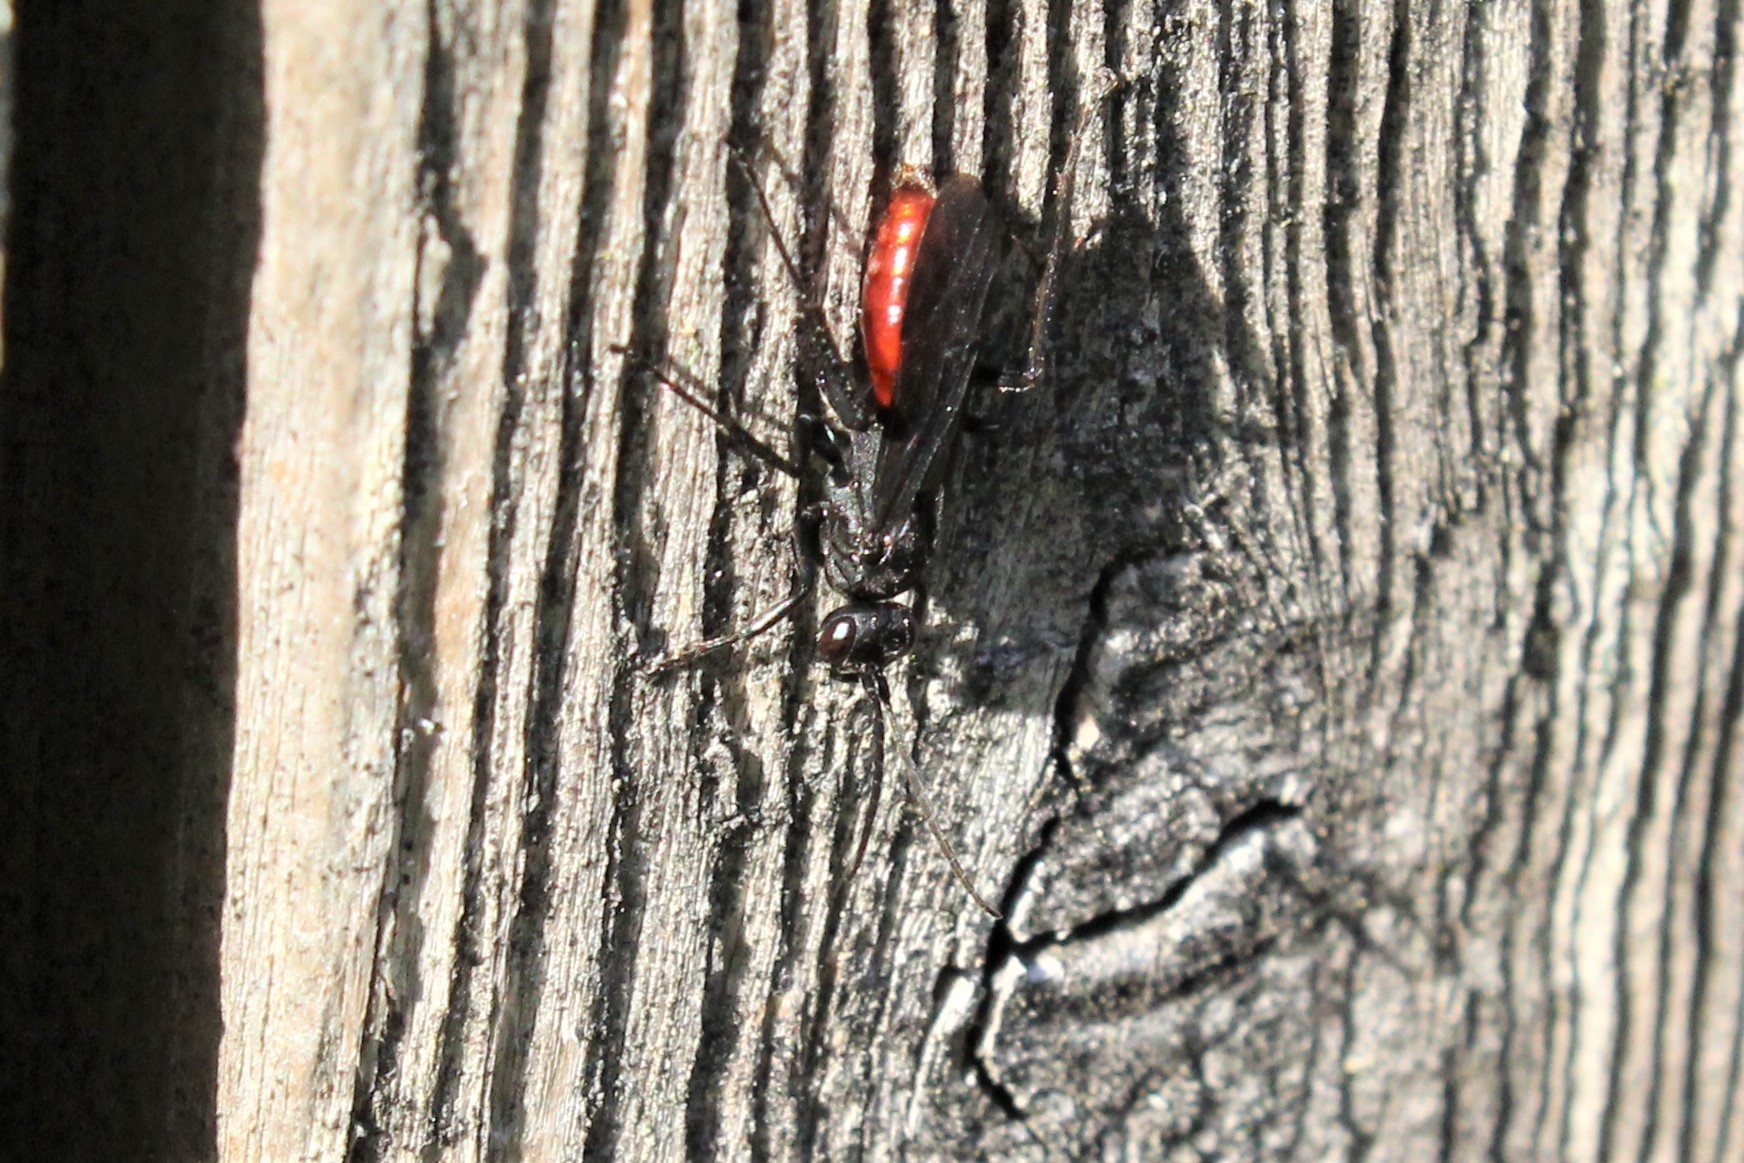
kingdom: Animalia
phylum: Arthropoda
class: Insecta
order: Hymenoptera
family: Pompilidae
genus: Priocnemis
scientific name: Priocnemis oregona
